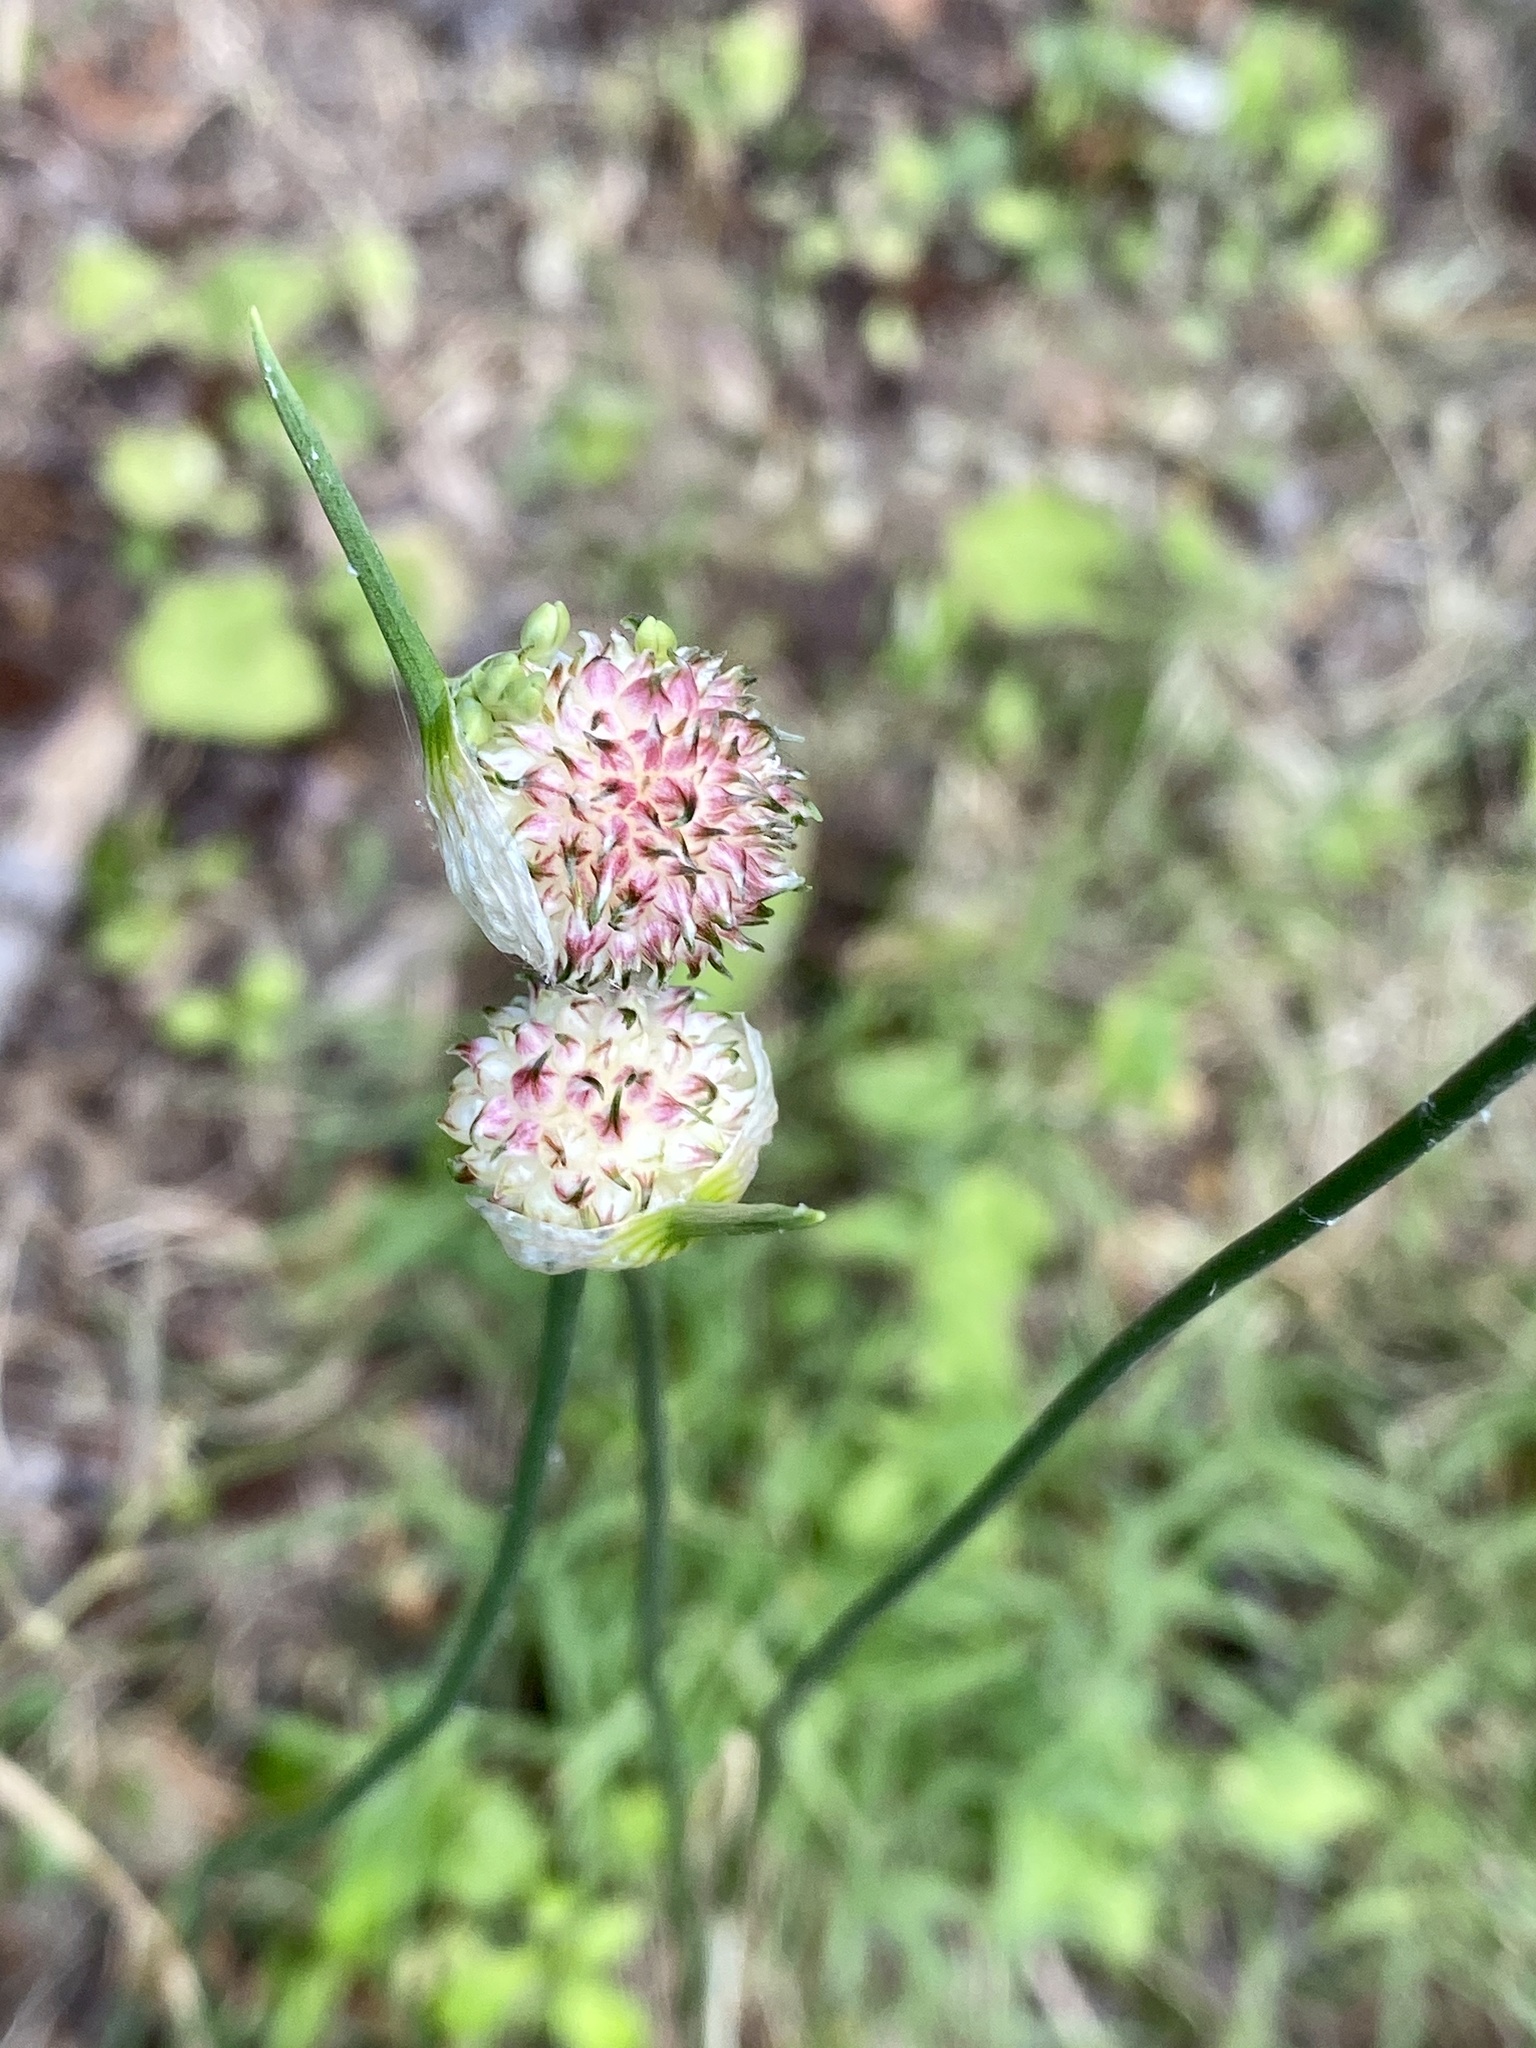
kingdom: Plantae
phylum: Tracheophyta
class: Liliopsida
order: Asparagales
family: Amaryllidaceae
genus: Allium
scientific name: Allium vineale
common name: Crow garlic
